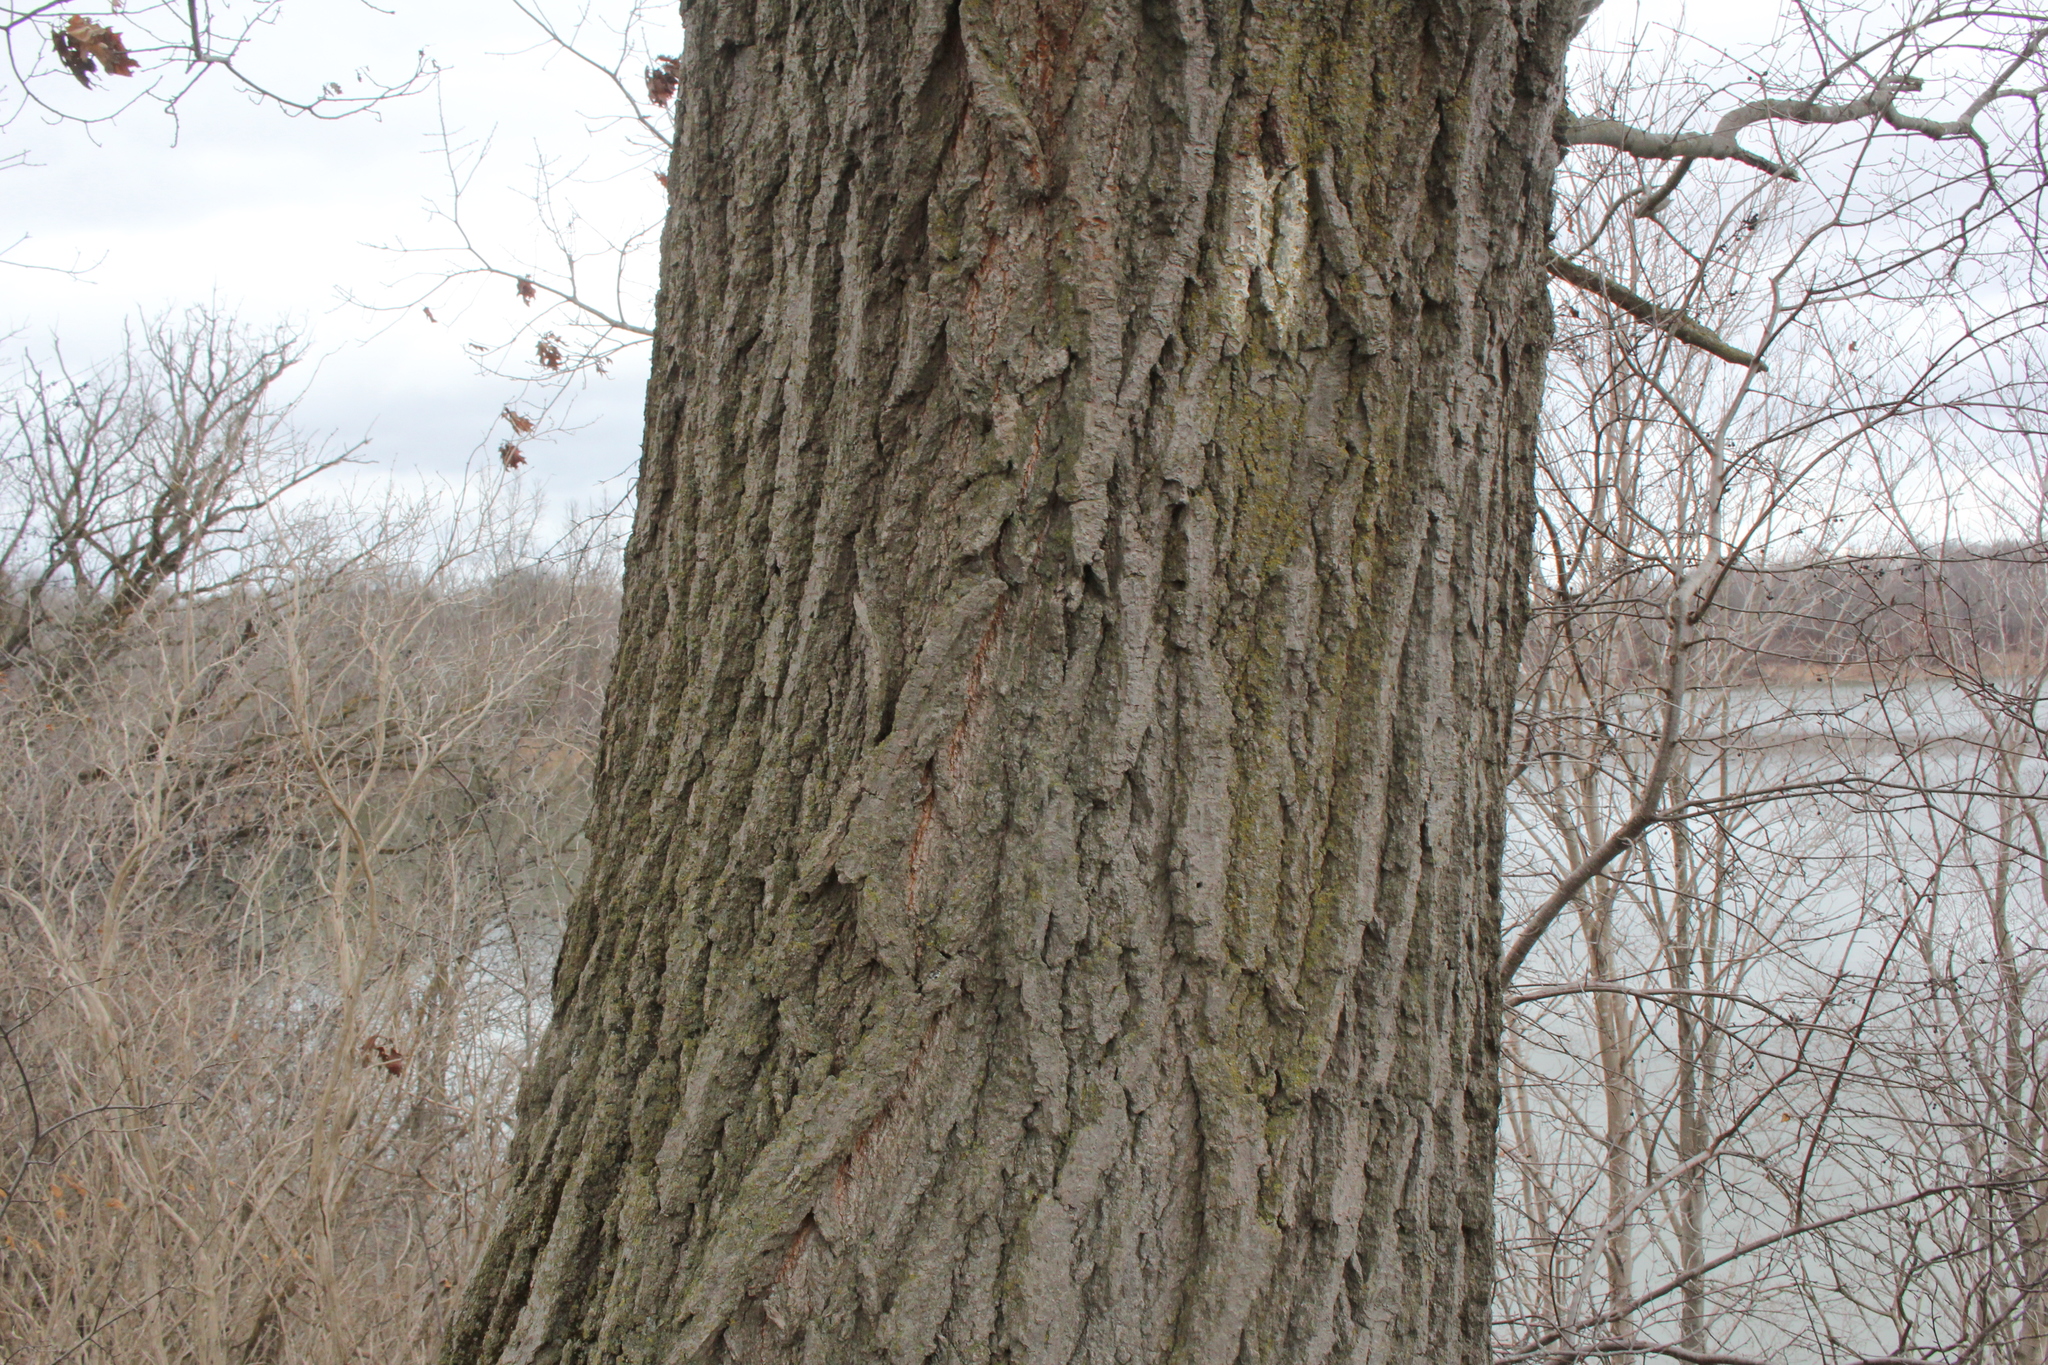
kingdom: Plantae
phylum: Tracheophyta
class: Magnoliopsida
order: Fagales
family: Fagaceae
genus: Quercus
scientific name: Quercus rubra
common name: Red oak
